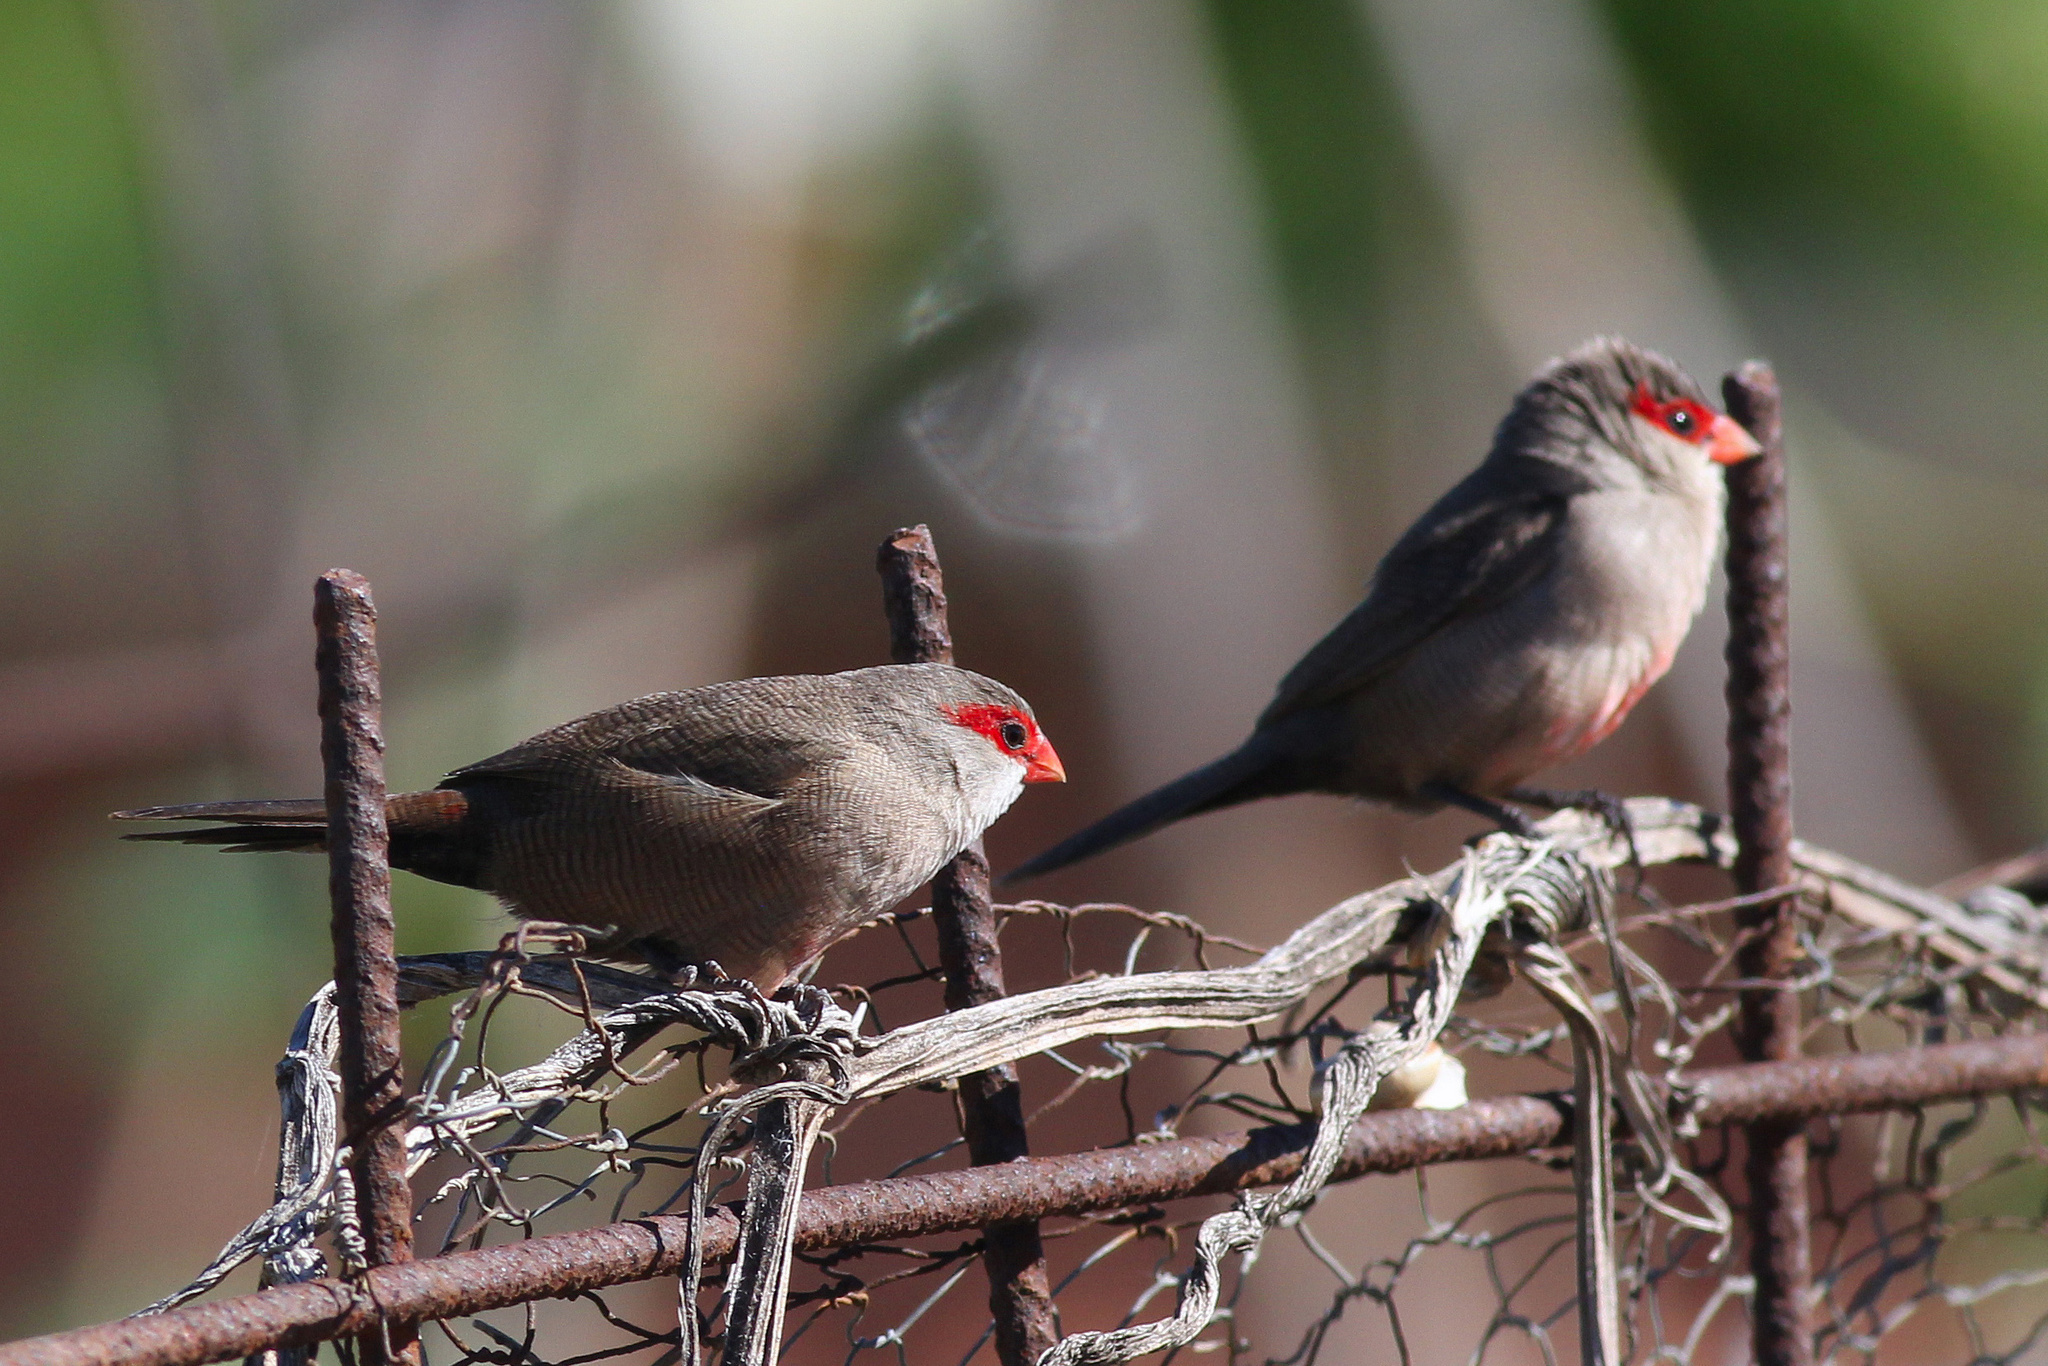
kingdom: Animalia
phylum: Chordata
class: Aves
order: Passeriformes
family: Estrildidae
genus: Estrilda
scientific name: Estrilda astrild
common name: Common waxbill
